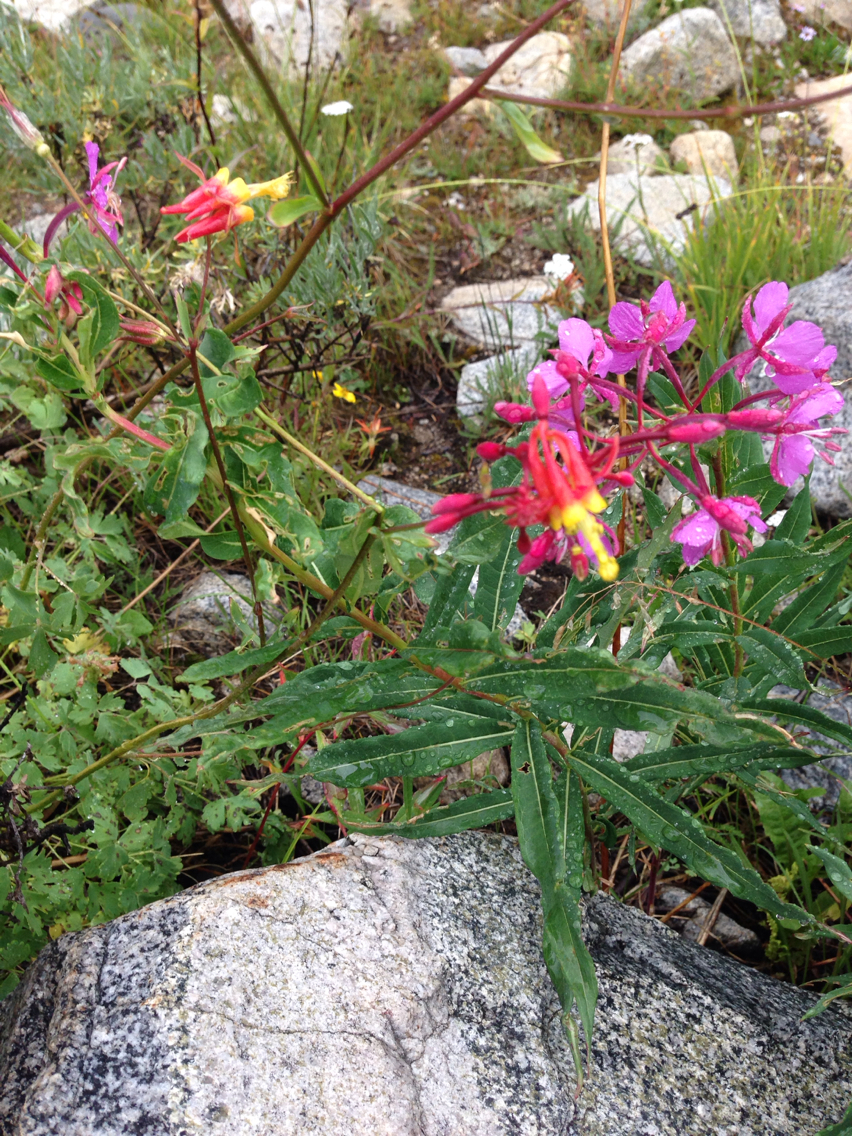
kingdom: Plantae
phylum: Tracheophyta
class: Magnoliopsida
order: Ranunculales
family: Ranunculaceae
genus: Aquilegia
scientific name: Aquilegia formosa
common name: Sitka columbine
